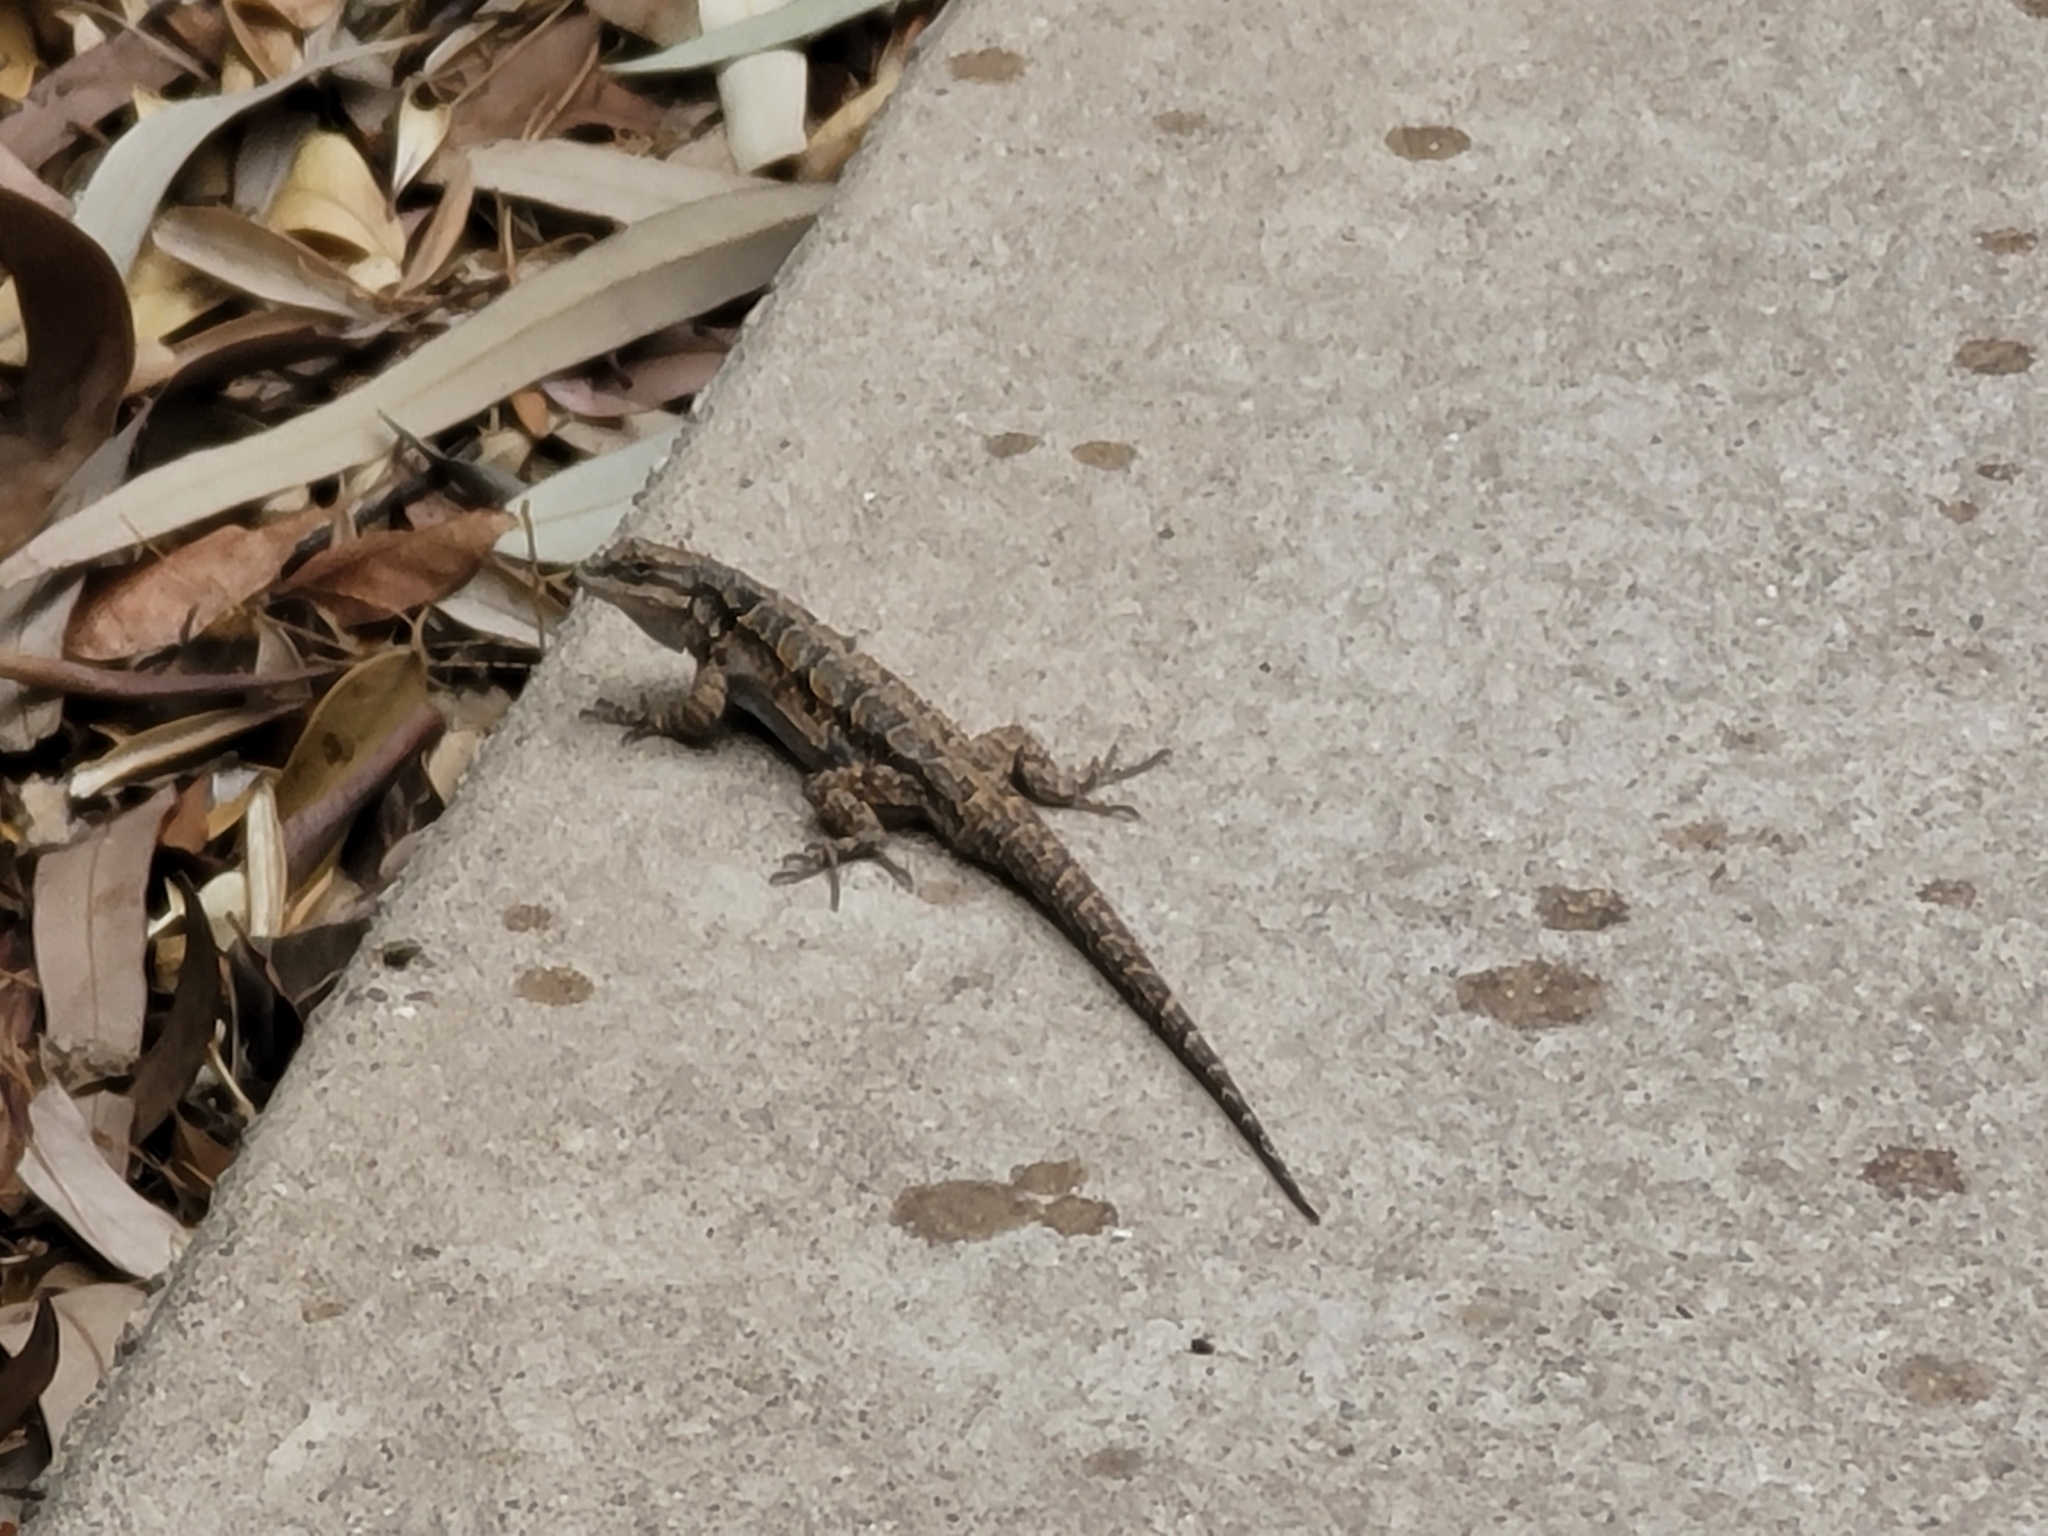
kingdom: Animalia
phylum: Chordata
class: Squamata
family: Phrynosomatidae
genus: Urosaurus
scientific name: Urosaurus ornatus
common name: Ornate tree lizard
